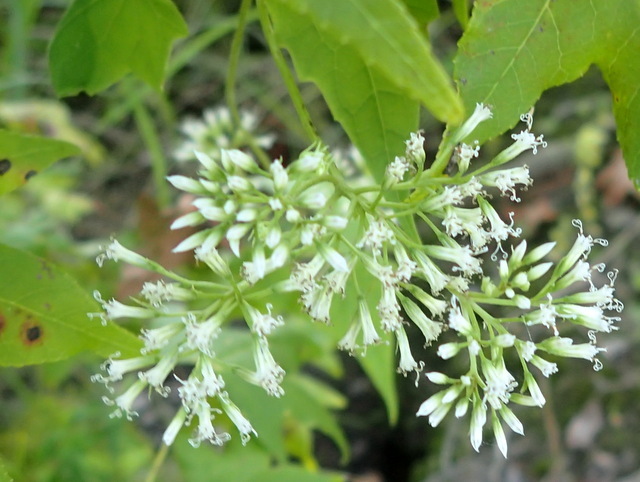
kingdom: Plantae
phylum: Tracheophyta
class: Magnoliopsida
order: Asterales
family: Asteraceae
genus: Mikania
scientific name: Mikania scandens
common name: Climbing hempvine
